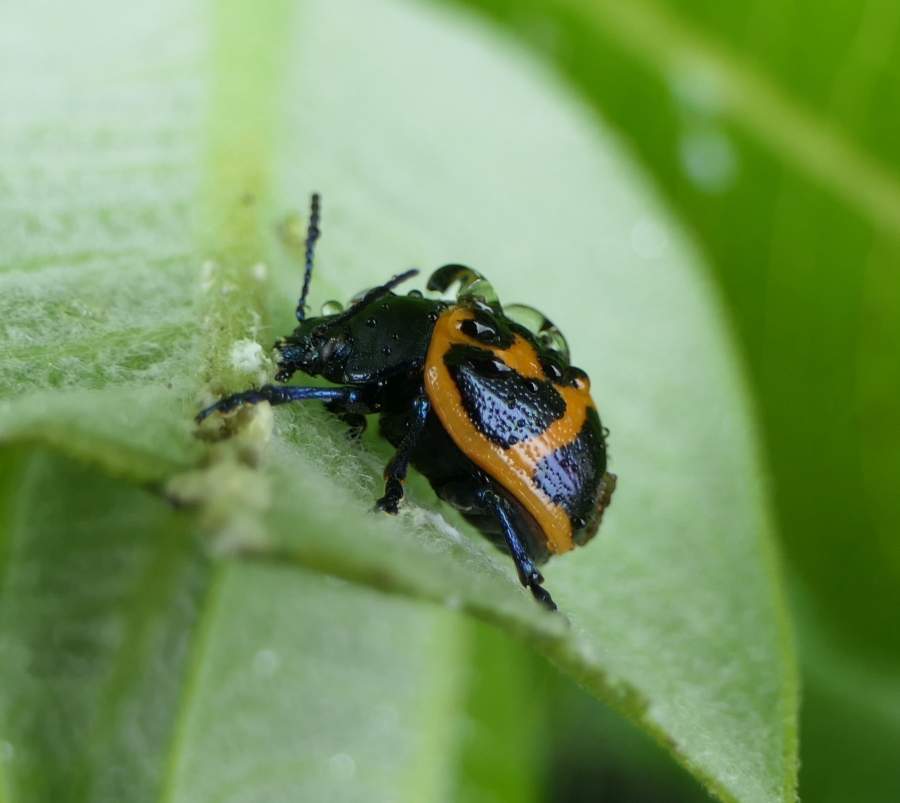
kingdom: Animalia
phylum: Arthropoda
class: Insecta
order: Coleoptera
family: Chrysomelidae
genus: Labidomera
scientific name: Labidomera clivicollis
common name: Swamp milkweed leaf beetle
